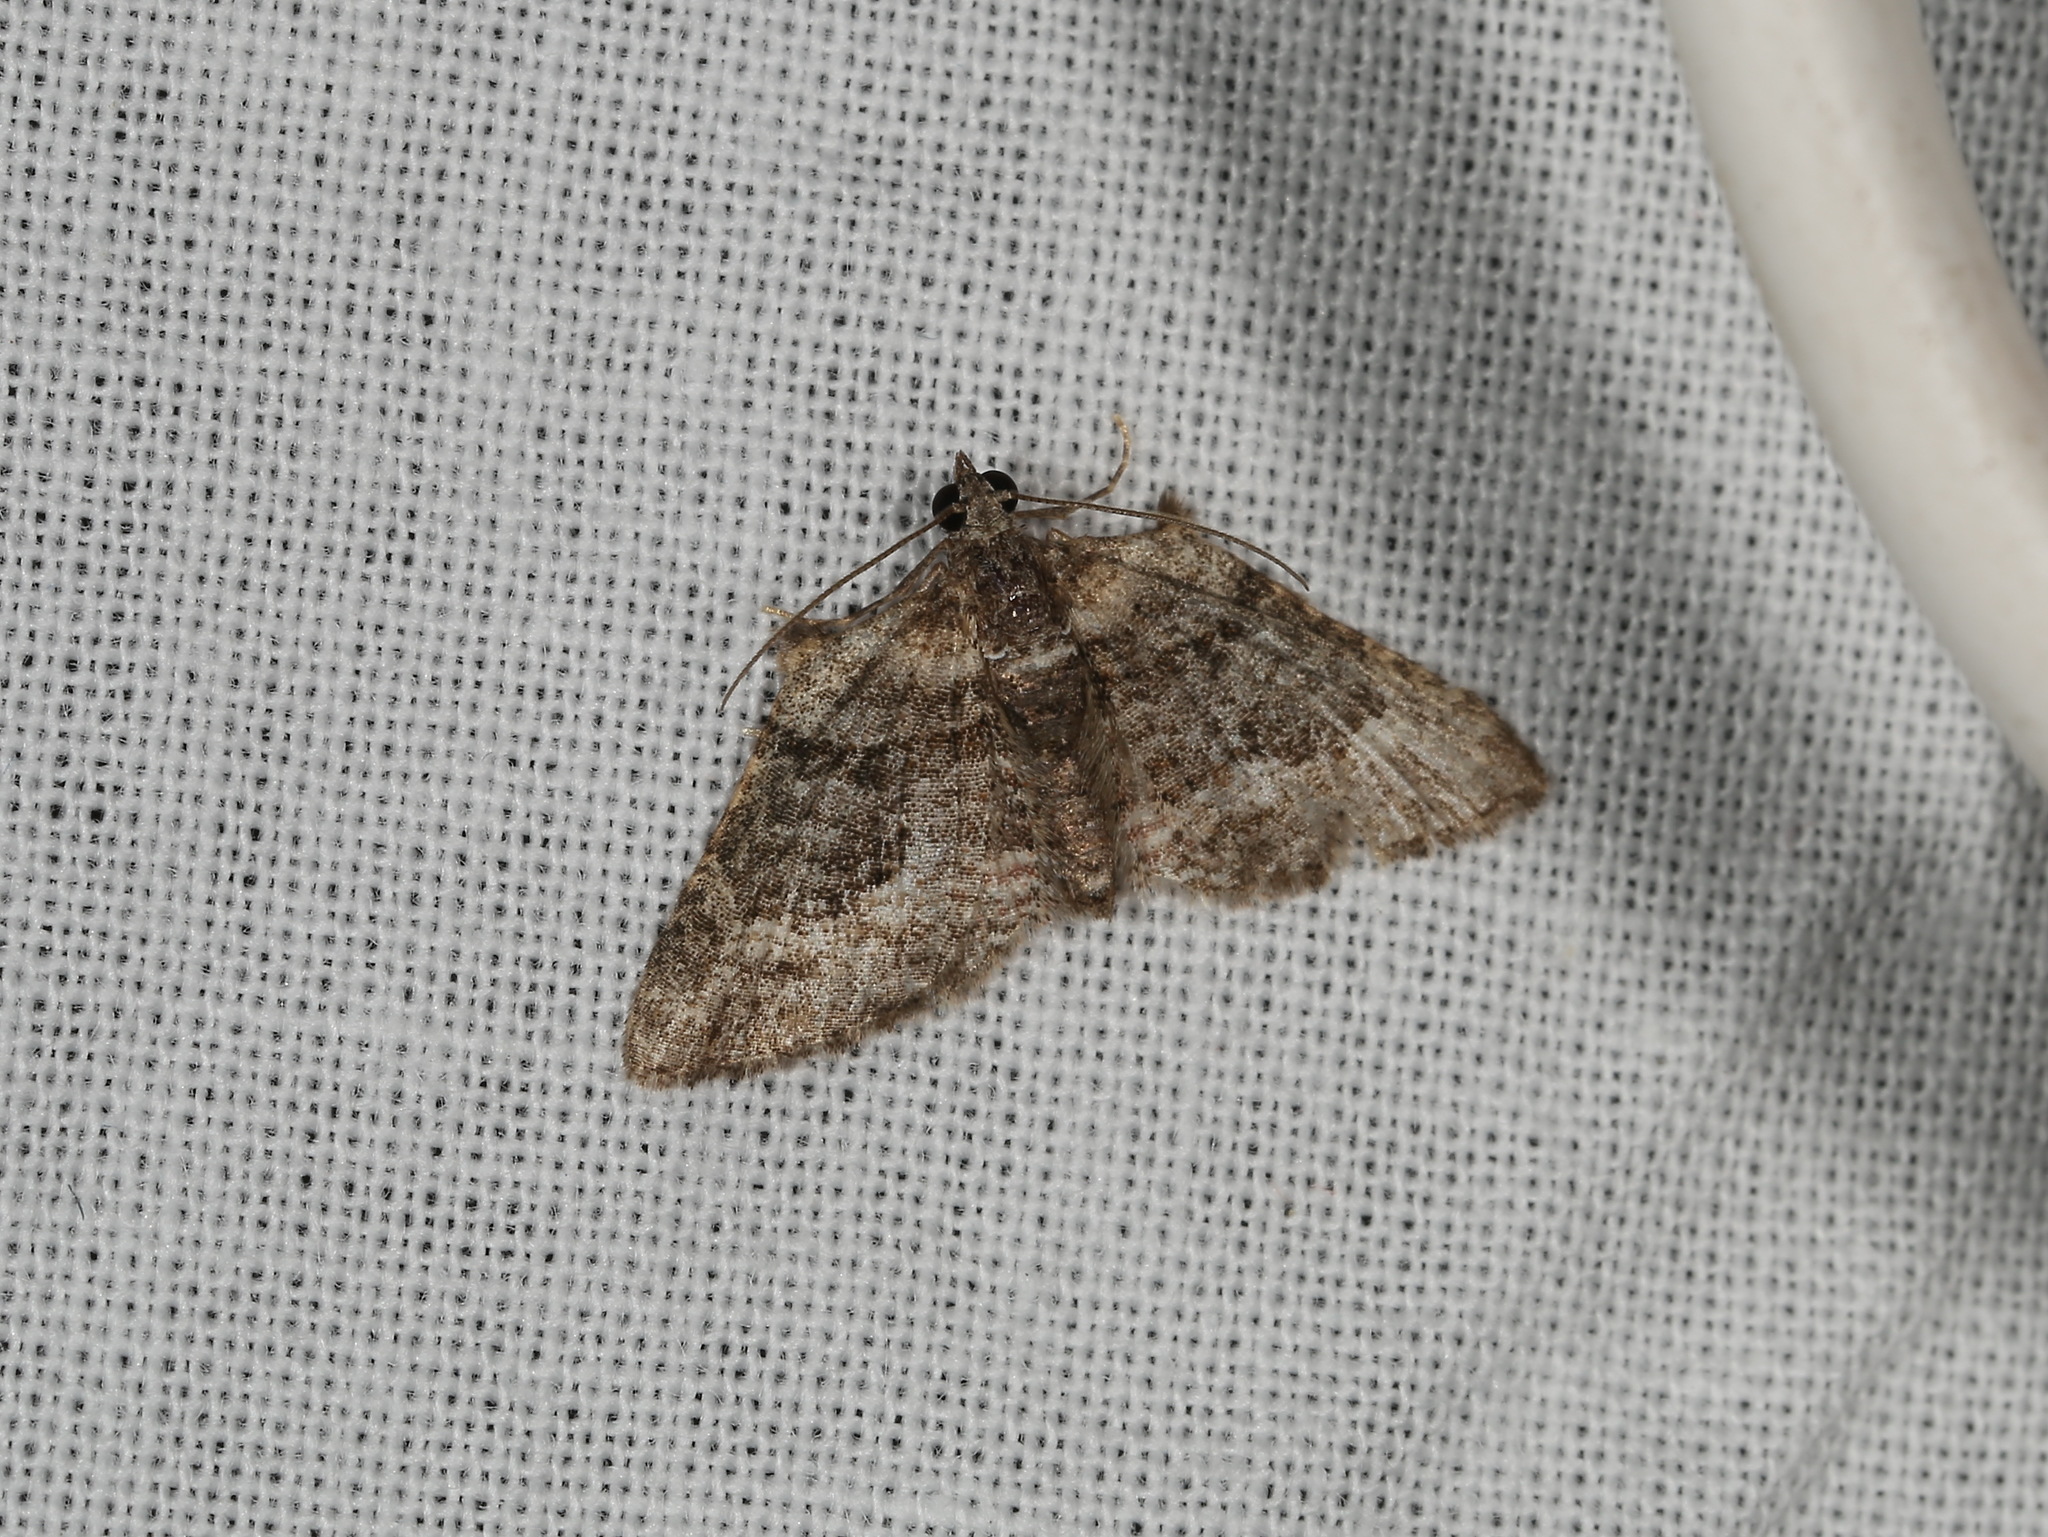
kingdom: Animalia
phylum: Arthropoda
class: Insecta
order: Lepidoptera
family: Geometridae
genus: Phrissogonus
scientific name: Phrissogonus laticostata
